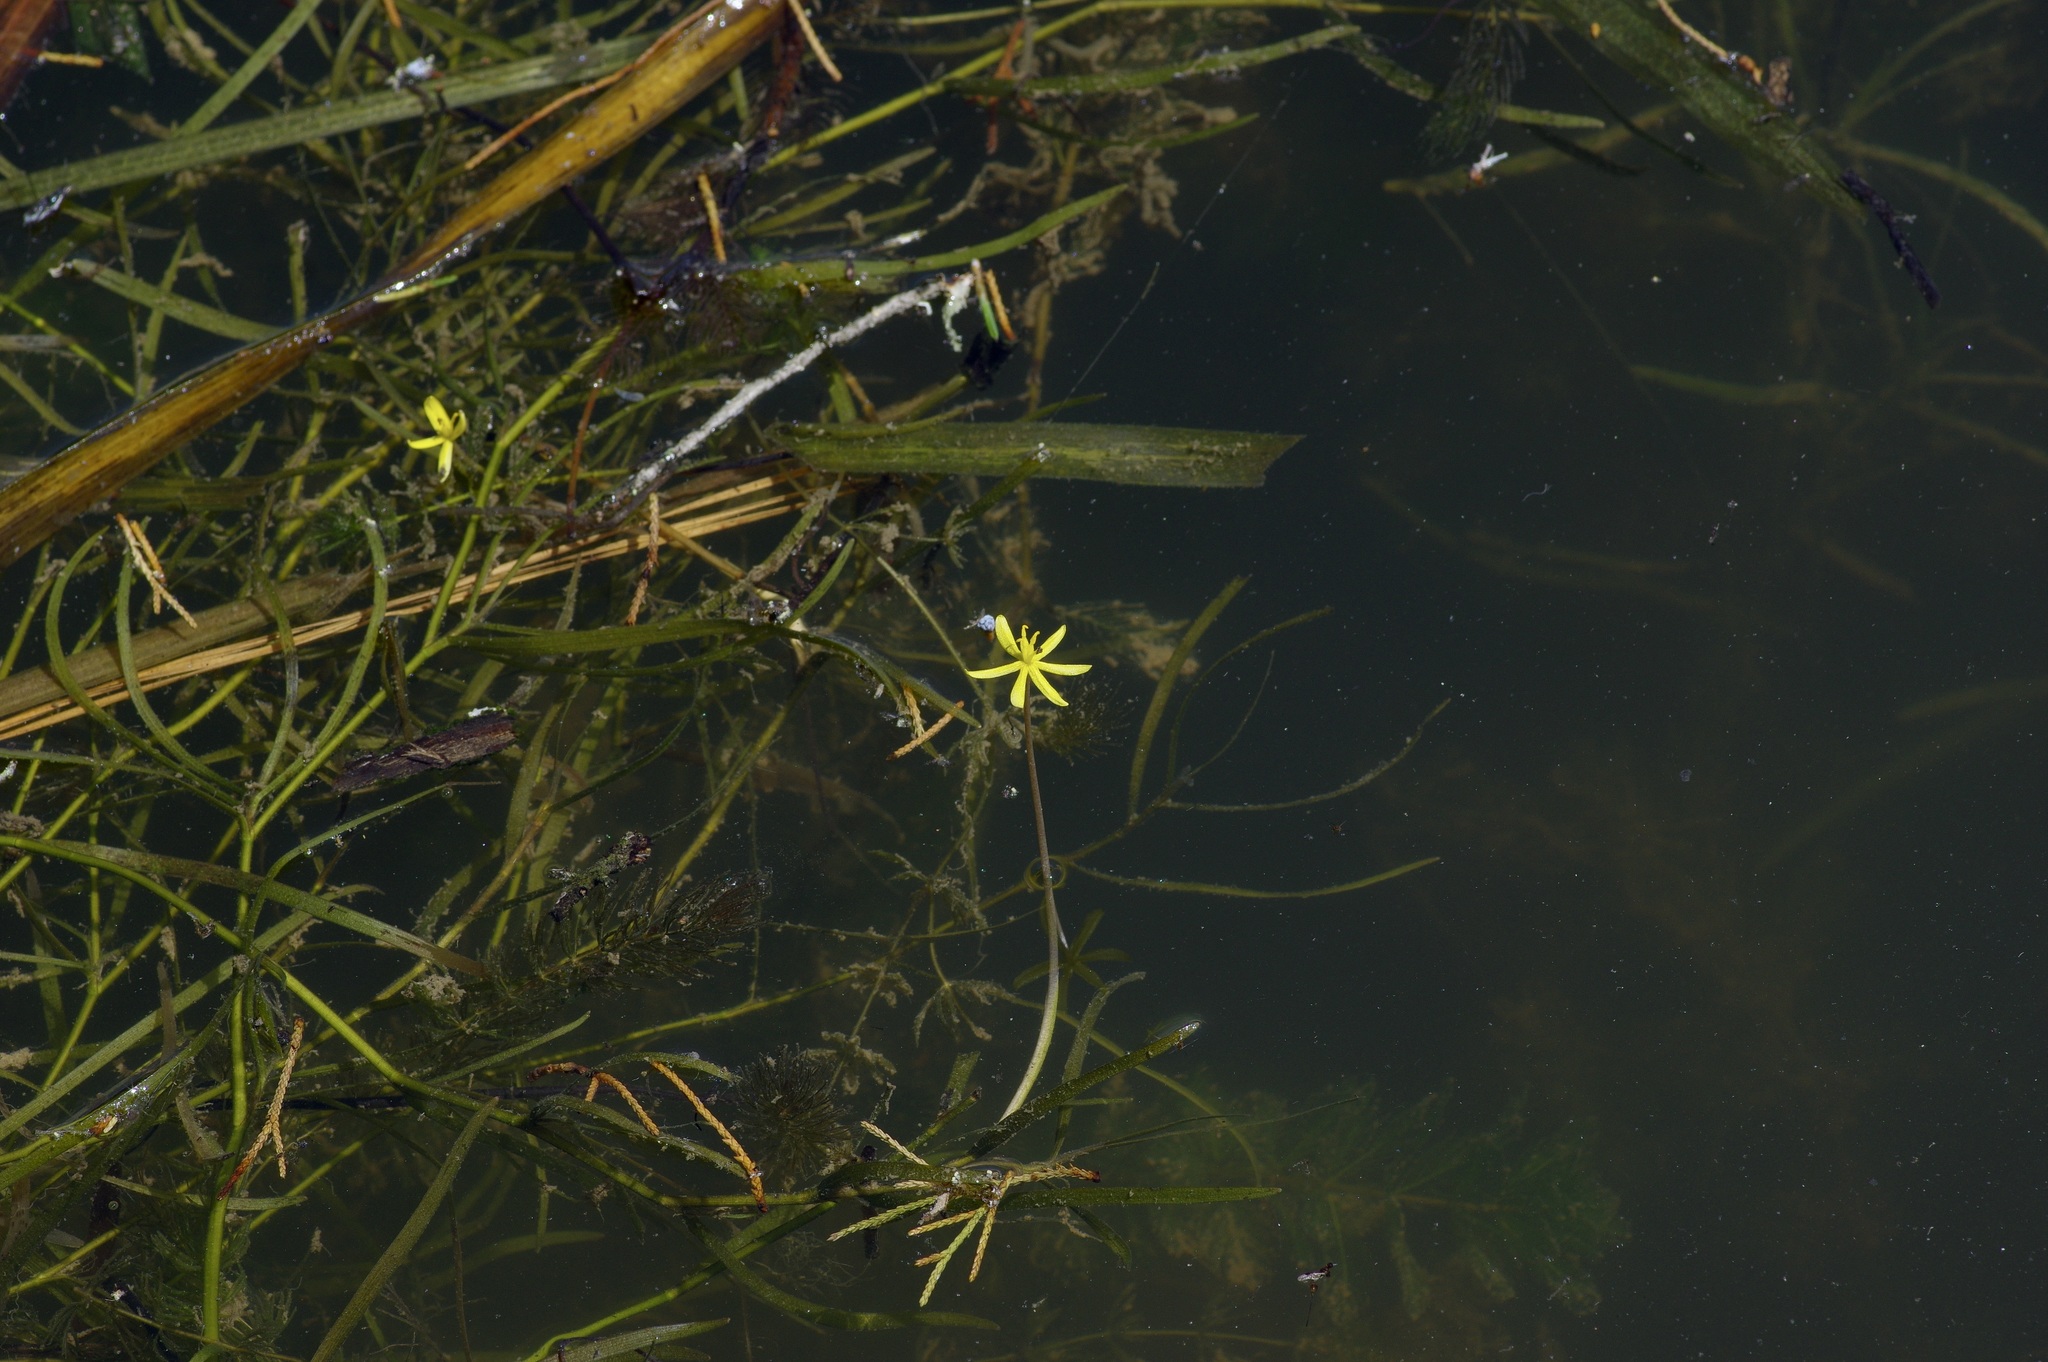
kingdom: Plantae
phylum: Tracheophyta
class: Liliopsida
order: Commelinales
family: Pontederiaceae
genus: Heteranthera
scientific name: Heteranthera dubia
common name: Grass-leaved mud plantain
